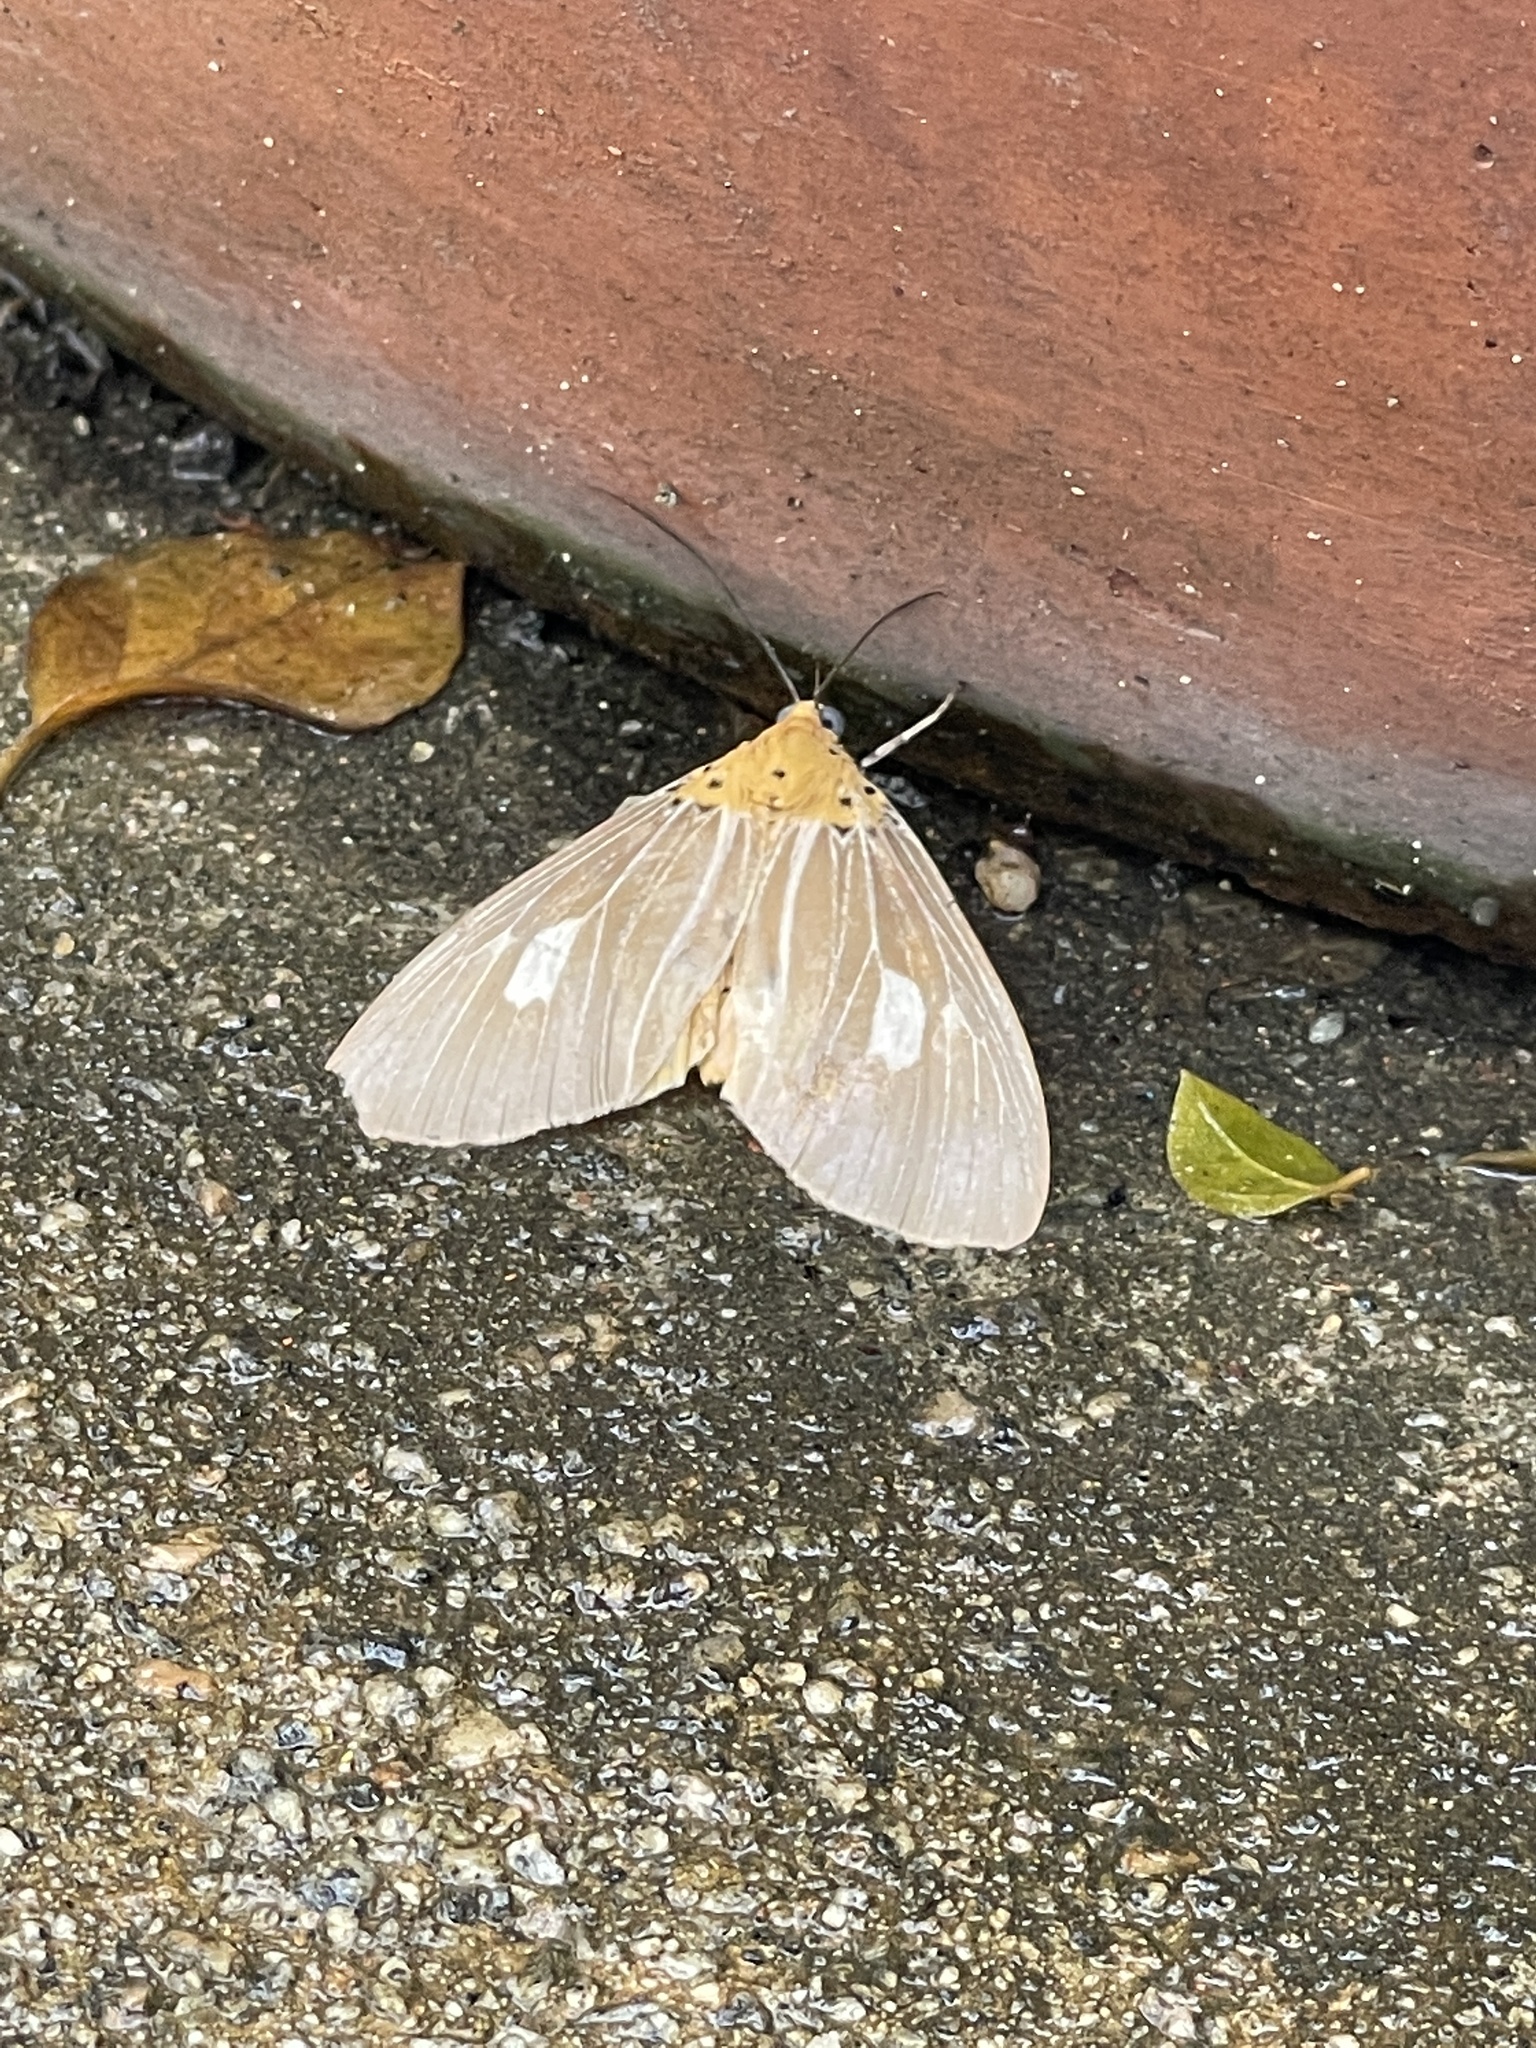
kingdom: Animalia
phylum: Arthropoda
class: Insecta
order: Lepidoptera
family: Erebidae
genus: Asota
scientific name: Asota plaginota
